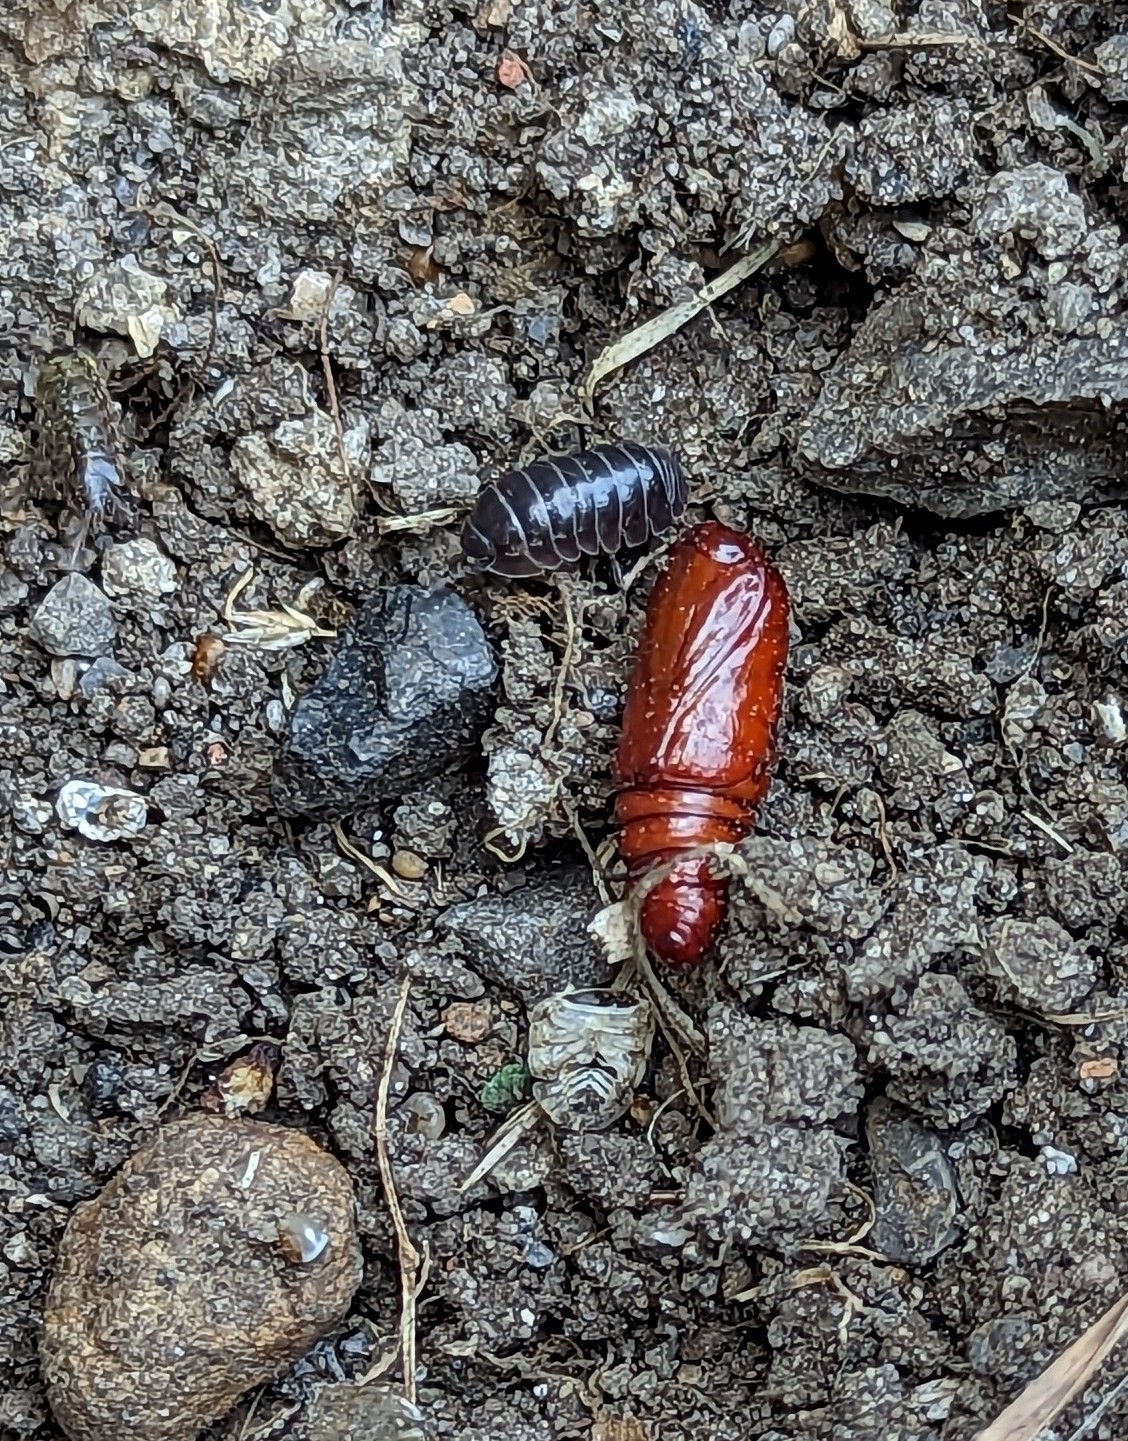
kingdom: Animalia
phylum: Arthropoda
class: Malacostraca
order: Isopoda
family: Armadillidiidae
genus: Armadillidium
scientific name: Armadillidium vulgare
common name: Common pill woodlouse
